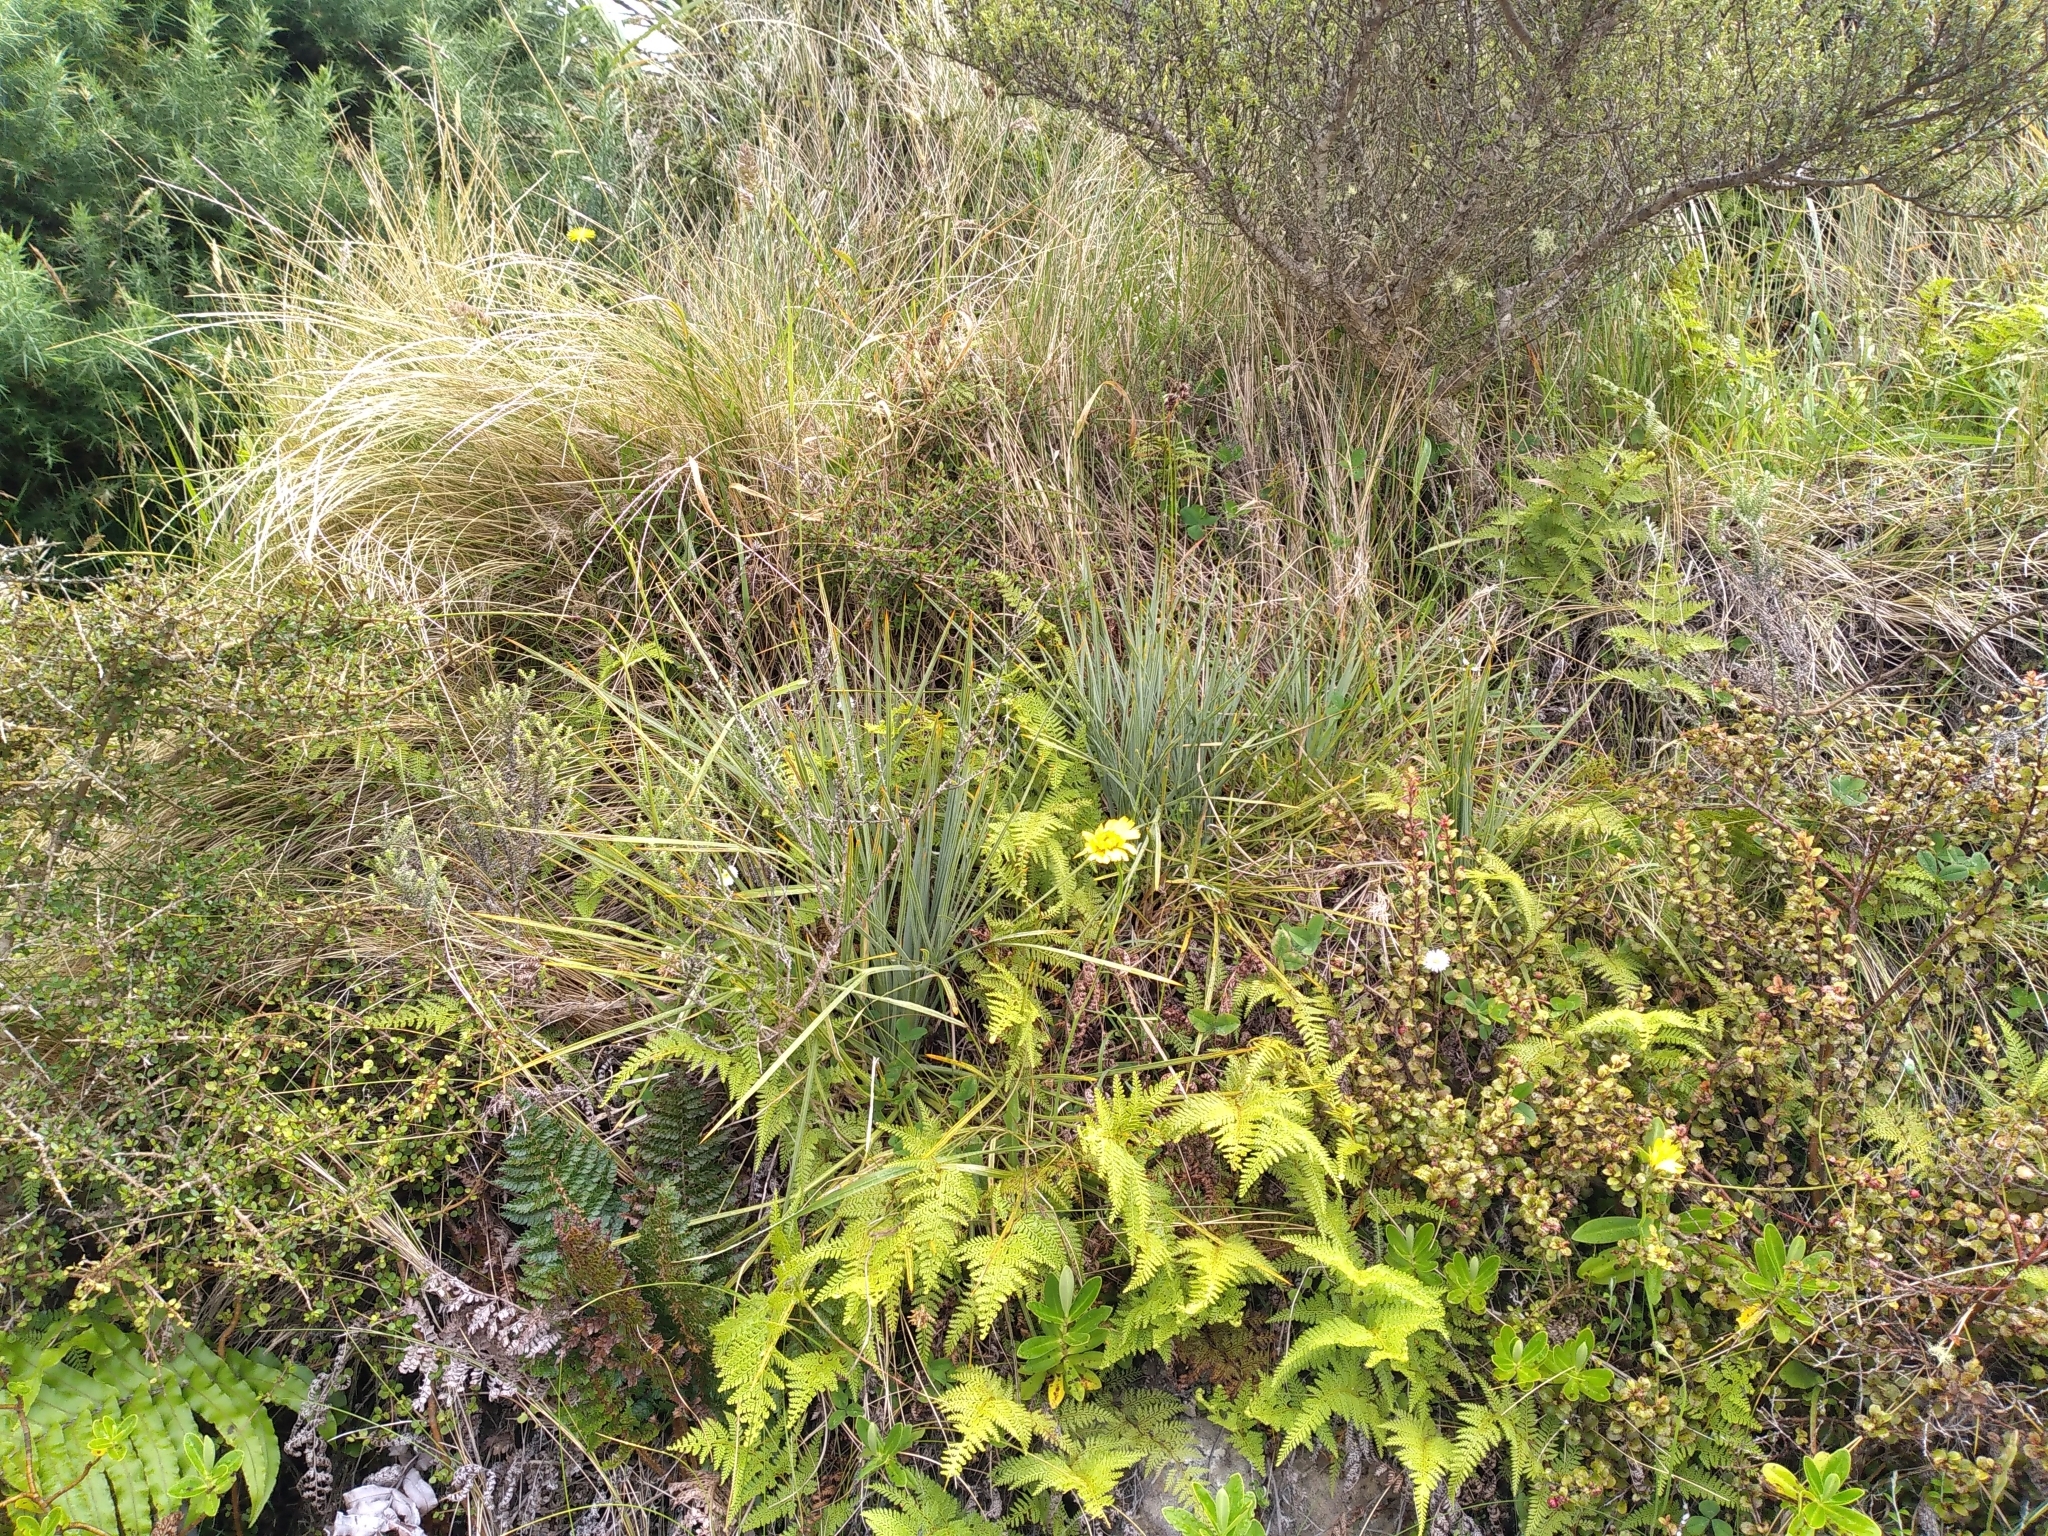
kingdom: Plantae
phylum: Tracheophyta
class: Magnoliopsida
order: Apiales
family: Apiaceae
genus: Aciphylla
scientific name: Aciphylla squarrosa
